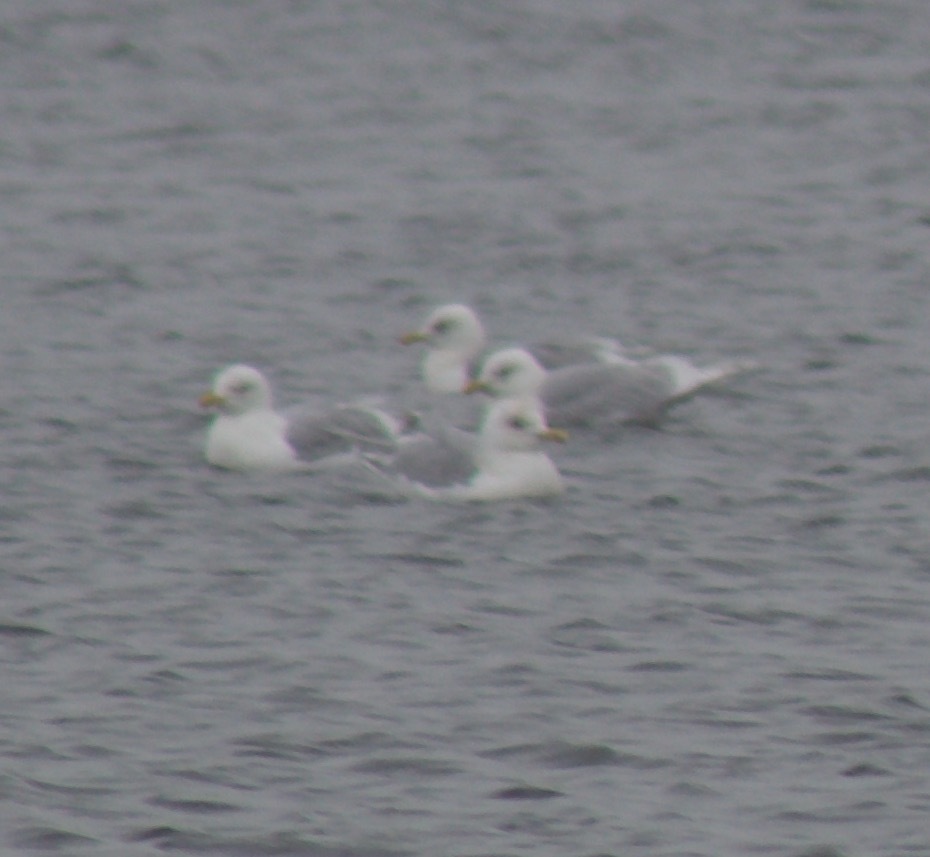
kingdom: Animalia
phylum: Chordata
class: Aves
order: Charadriiformes
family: Laridae
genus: Larus
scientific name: Larus glaucoides
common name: Iceland gull
